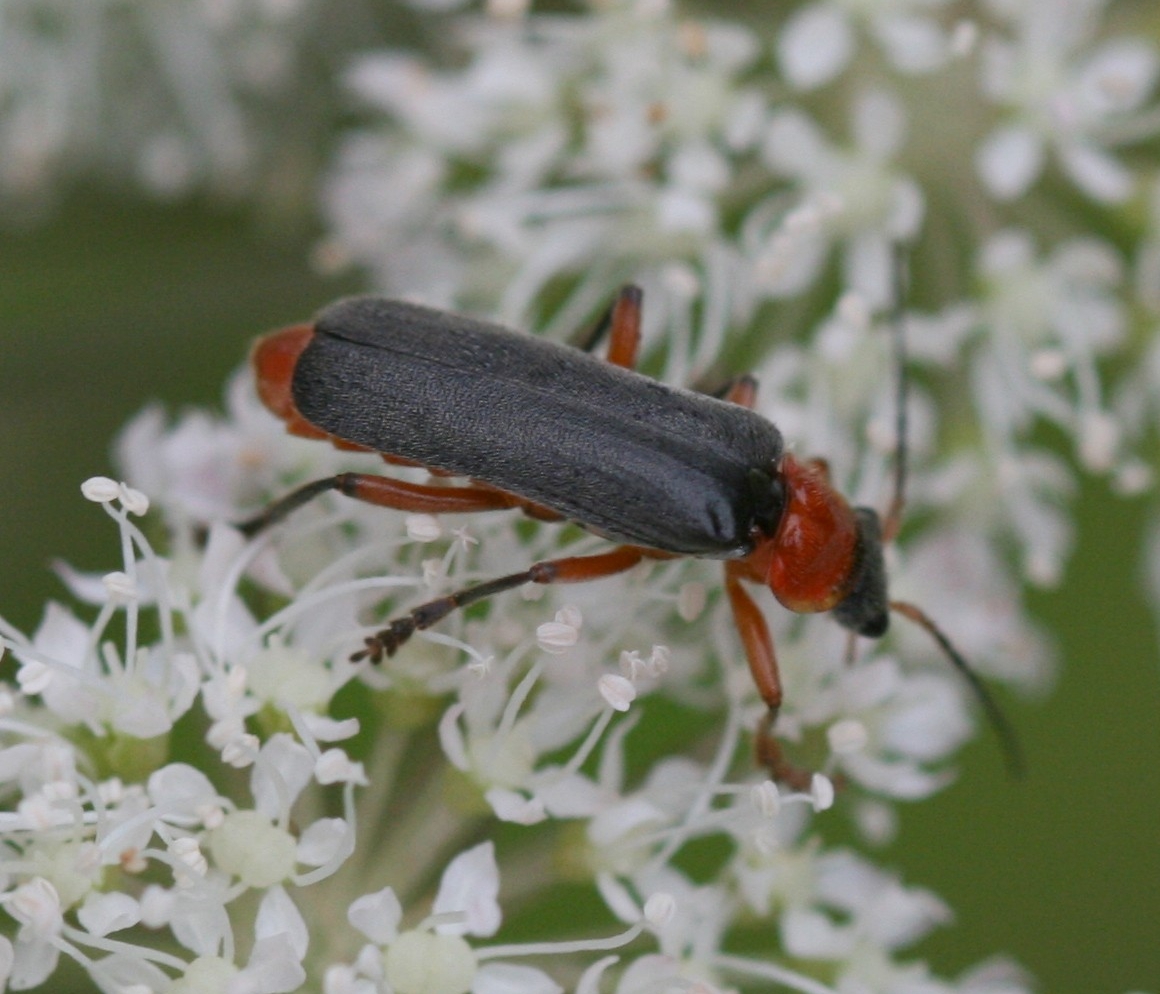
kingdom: Animalia
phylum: Arthropoda
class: Insecta
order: Coleoptera
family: Cantharidae
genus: Cantharis
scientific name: Cantharis pellucida
